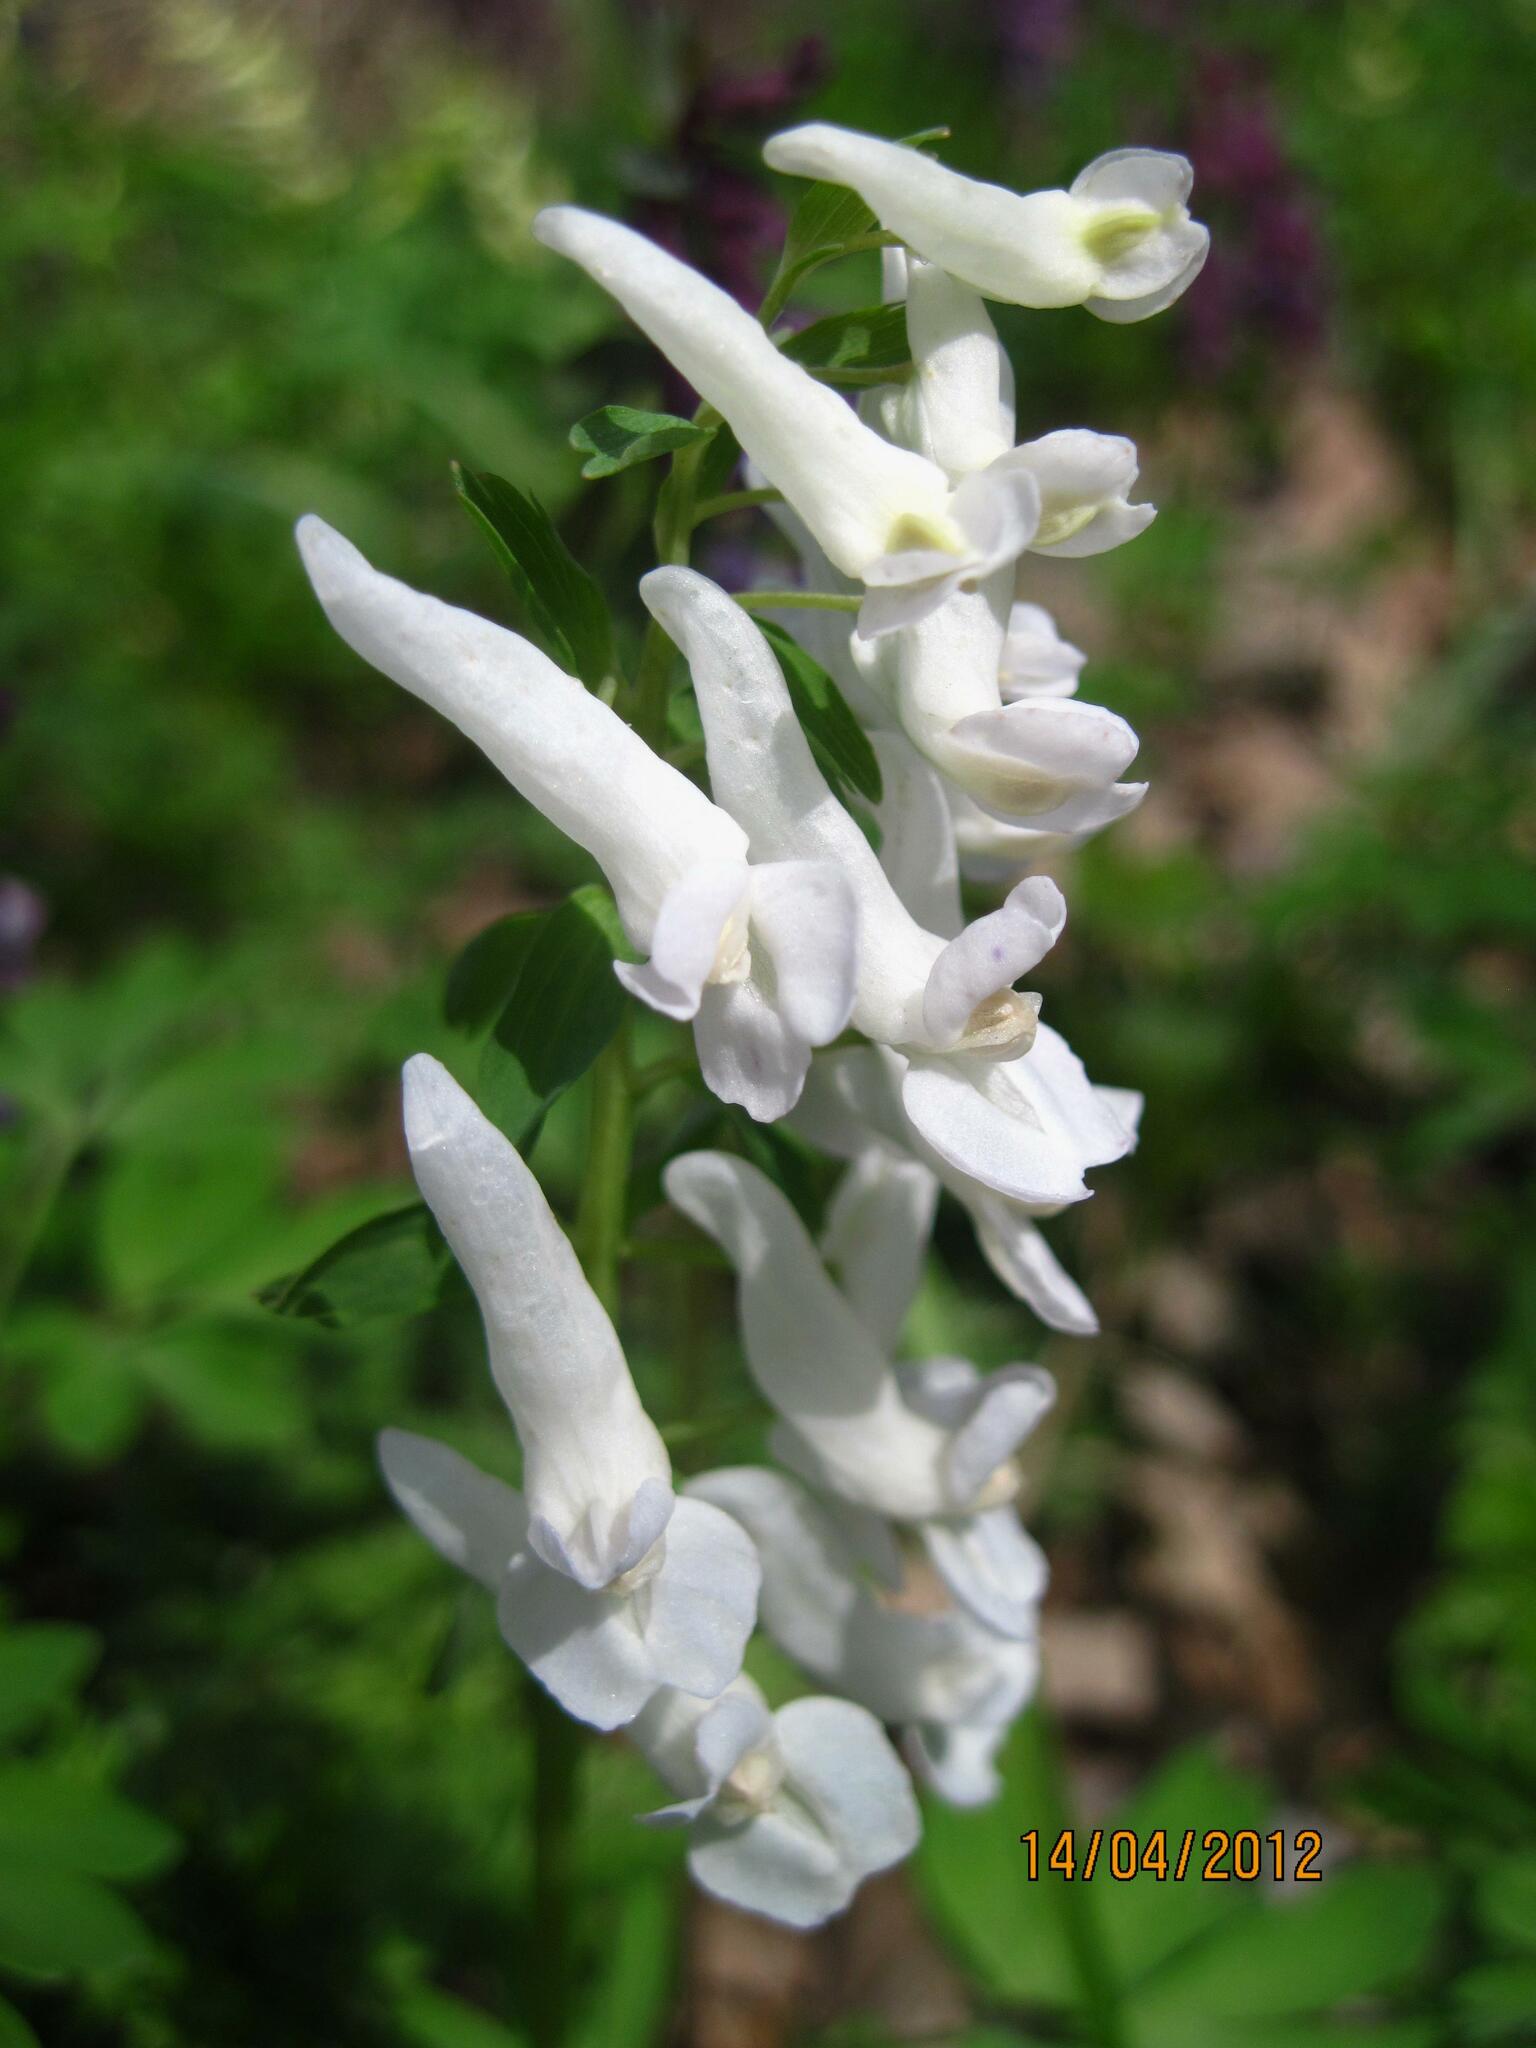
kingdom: Plantae
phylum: Tracheophyta
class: Magnoliopsida
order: Ranunculales
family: Papaveraceae
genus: Corydalis
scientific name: Corydalis solida
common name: Bird-in-a-bush
